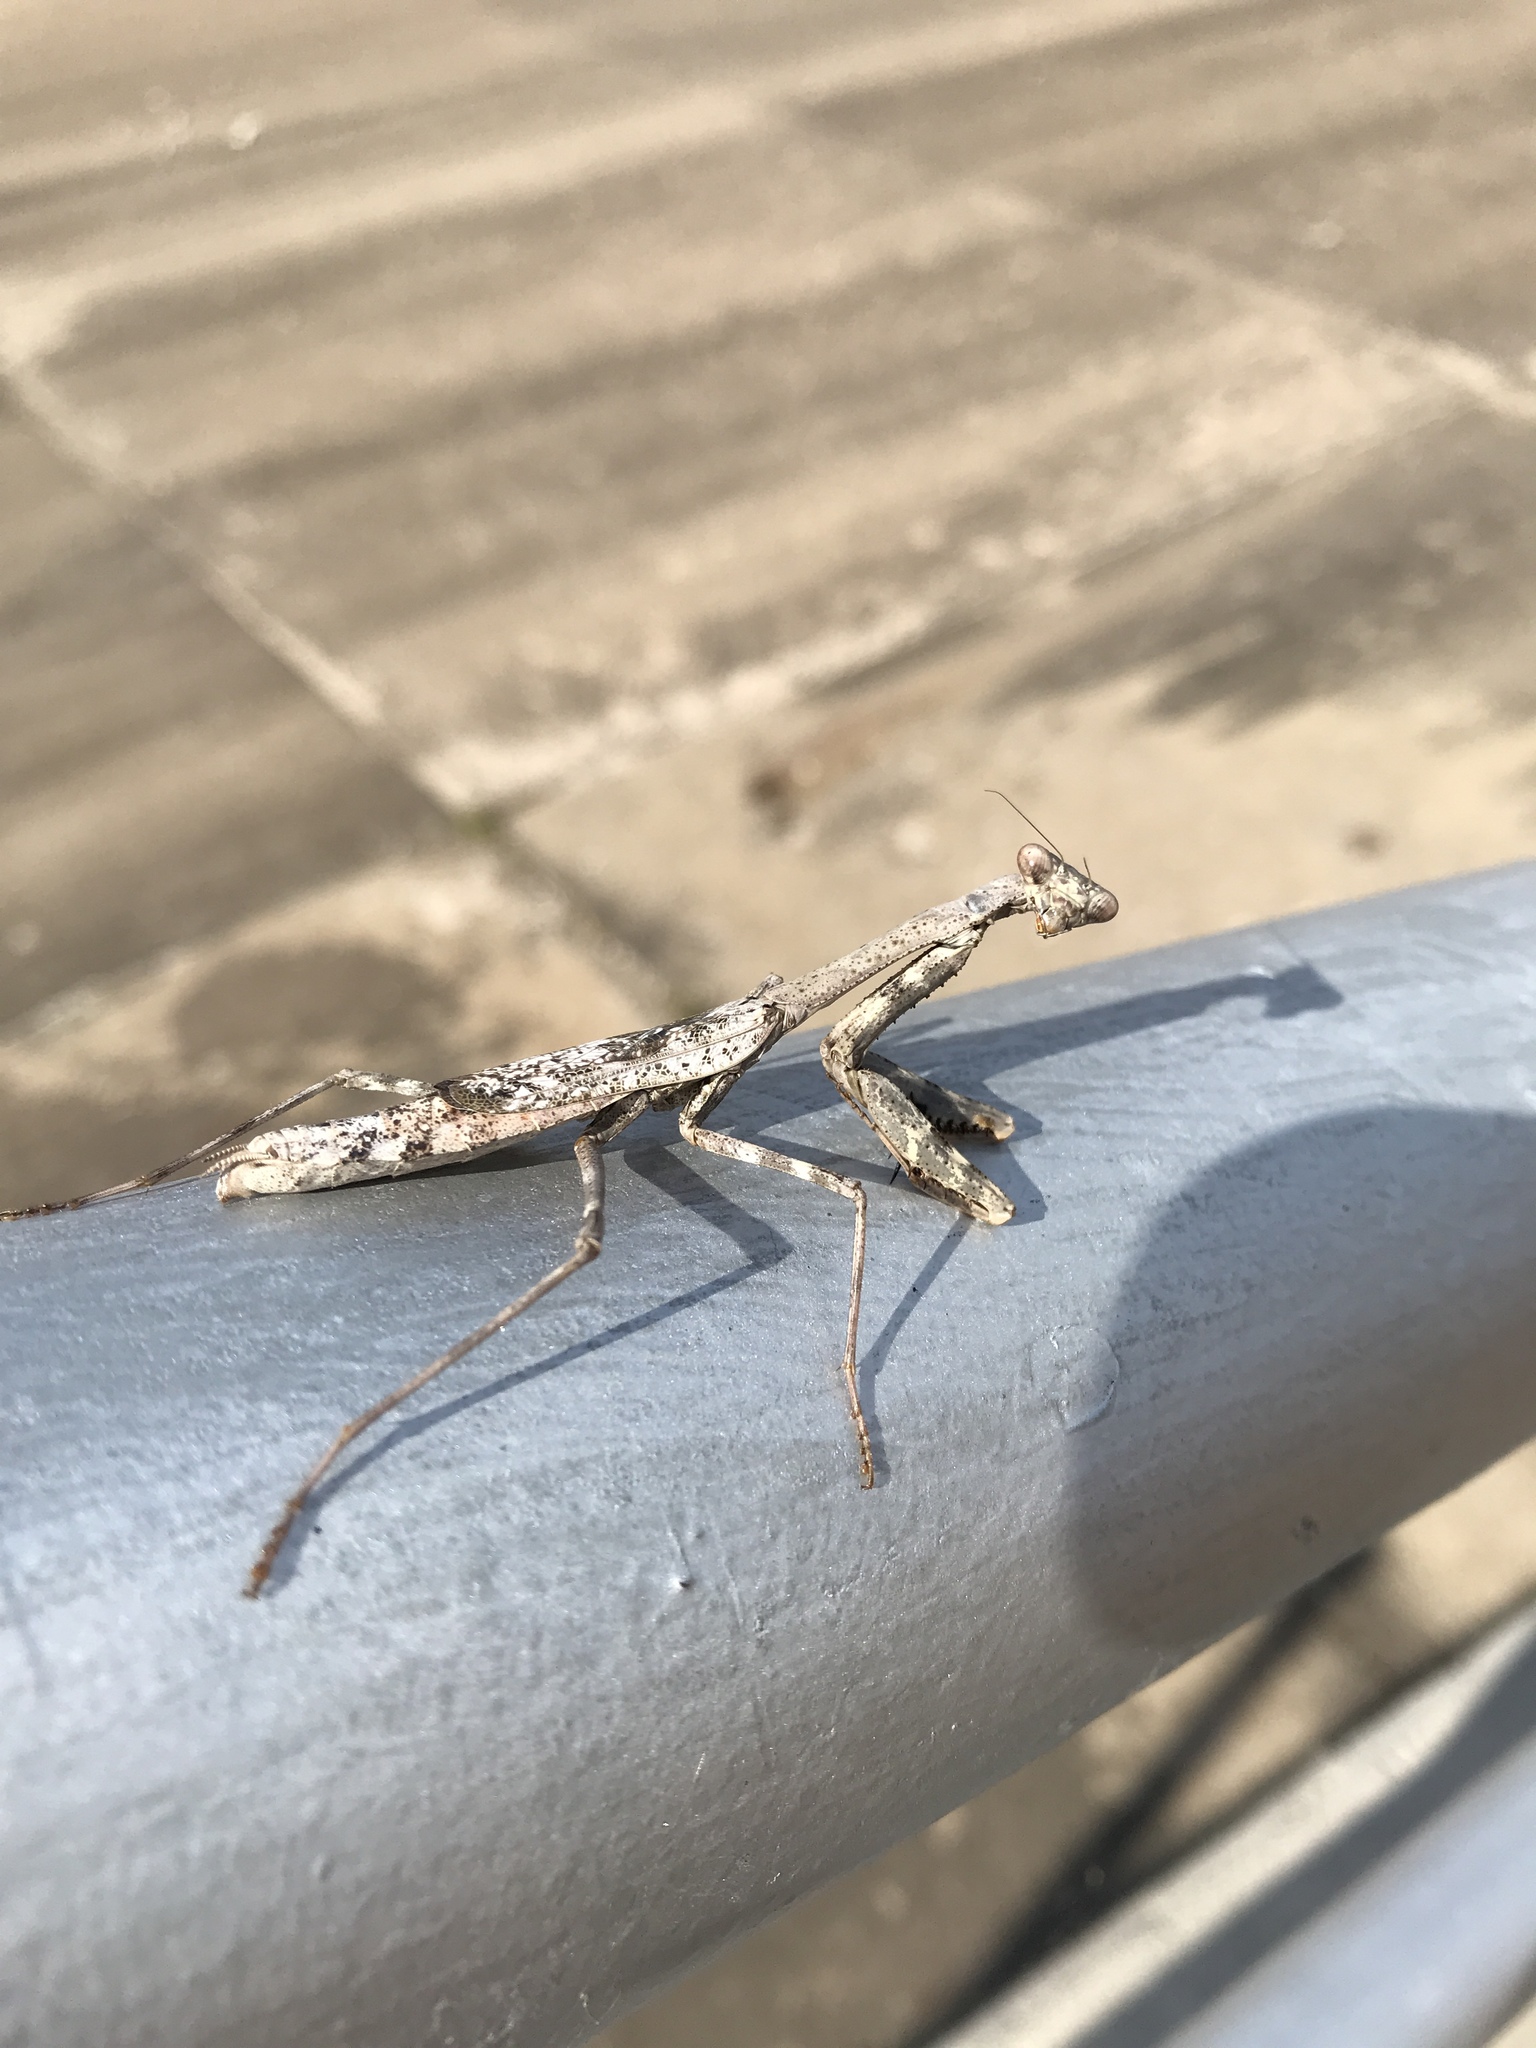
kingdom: Animalia
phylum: Arthropoda
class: Insecta
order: Mantodea
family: Mantidae
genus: Stagmomantis
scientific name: Stagmomantis carolina
